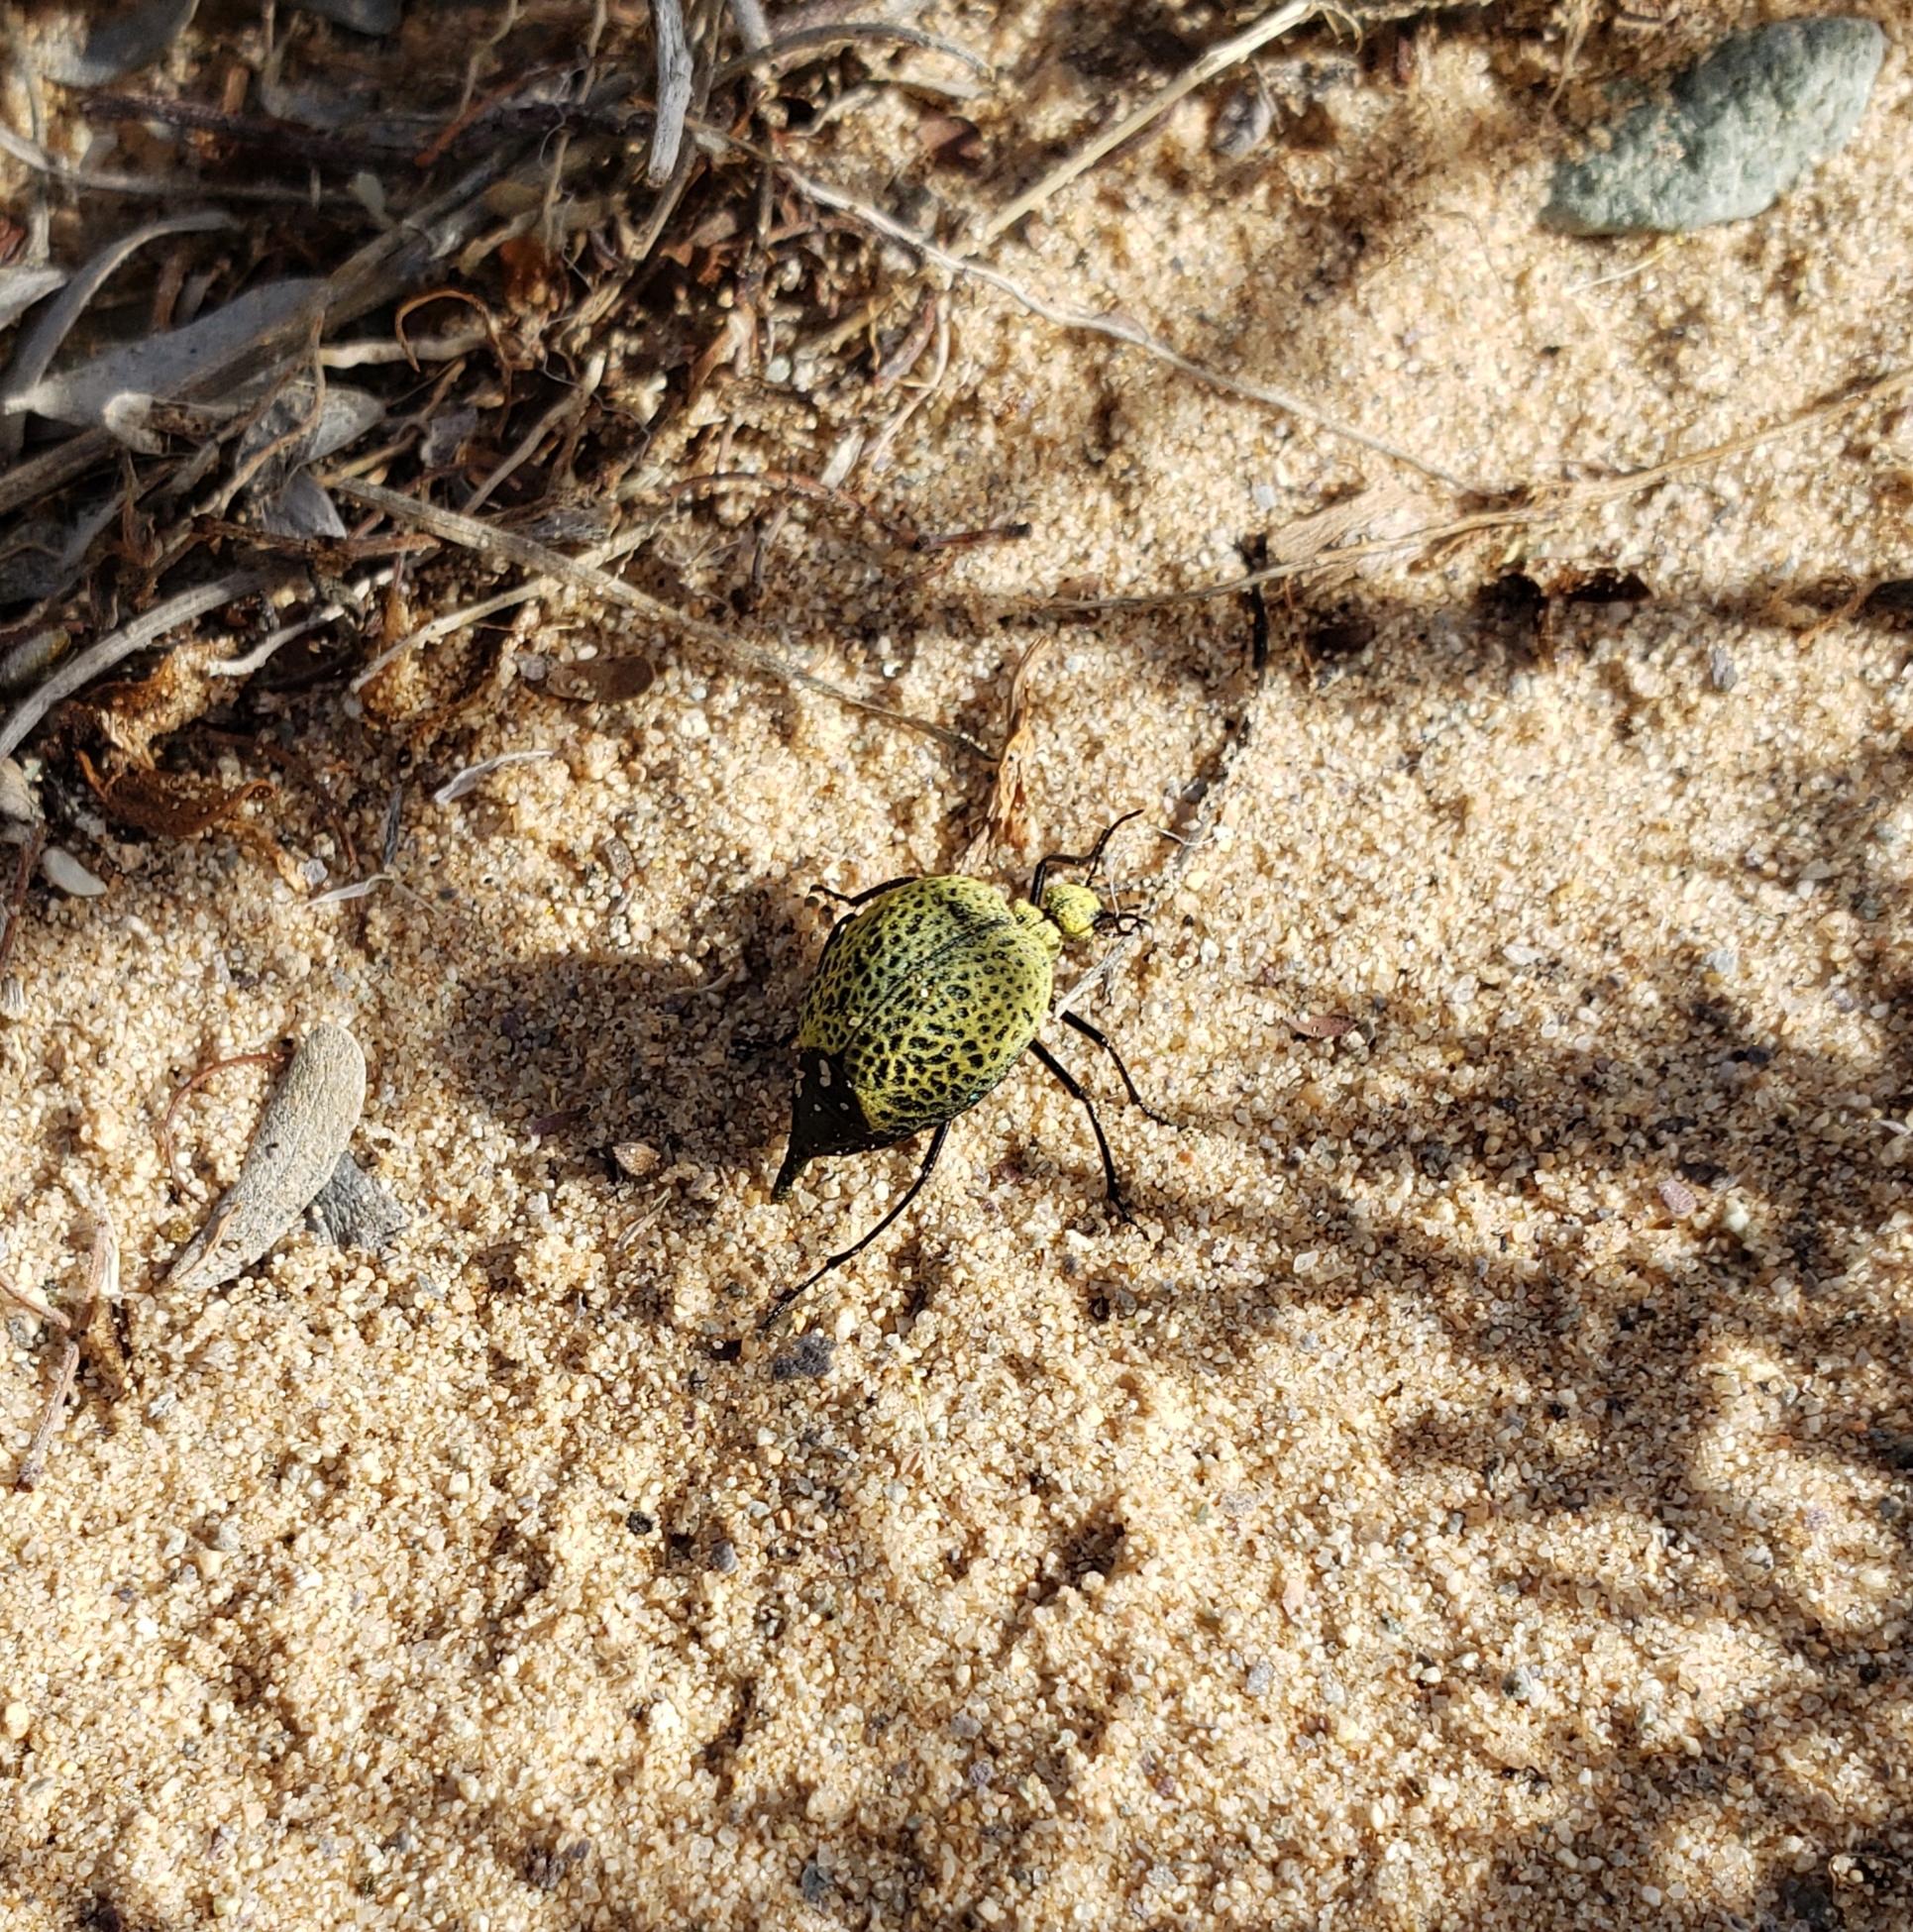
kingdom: Animalia
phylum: Arthropoda
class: Insecta
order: Coleoptera
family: Meloidae
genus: Cysteodemus
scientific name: Cysteodemus armatus
